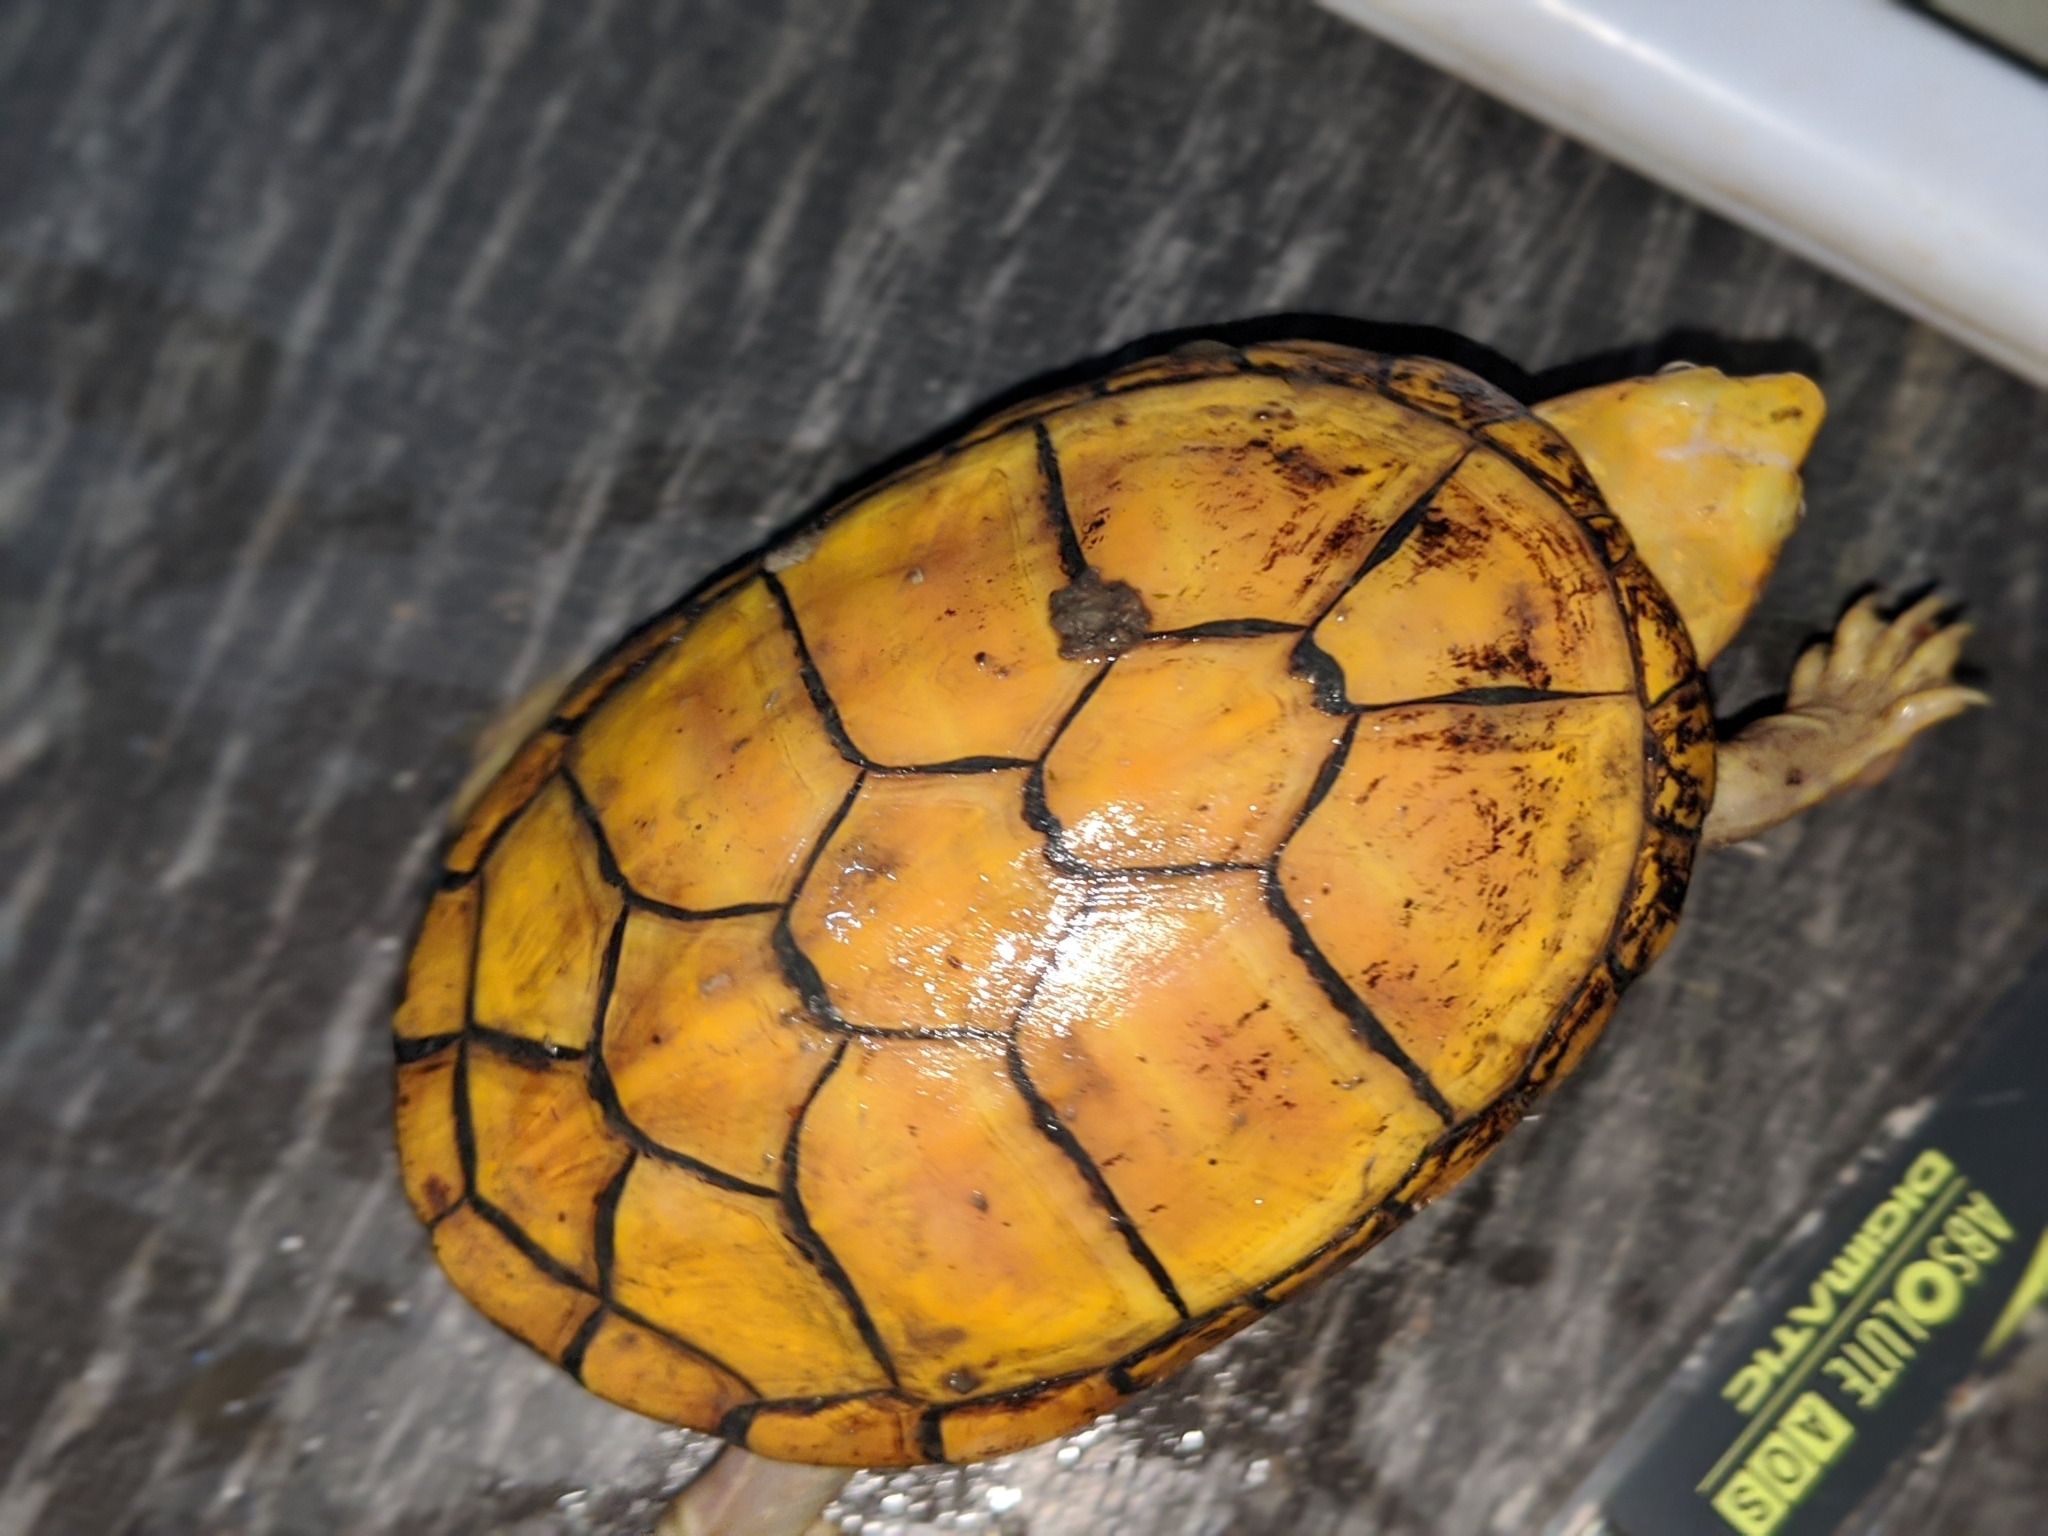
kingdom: Animalia
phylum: Chordata
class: Testudines
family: Kinosternidae
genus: Kinosternon
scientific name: Kinosternon chimalhuaca
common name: Jalisco mud turtle
